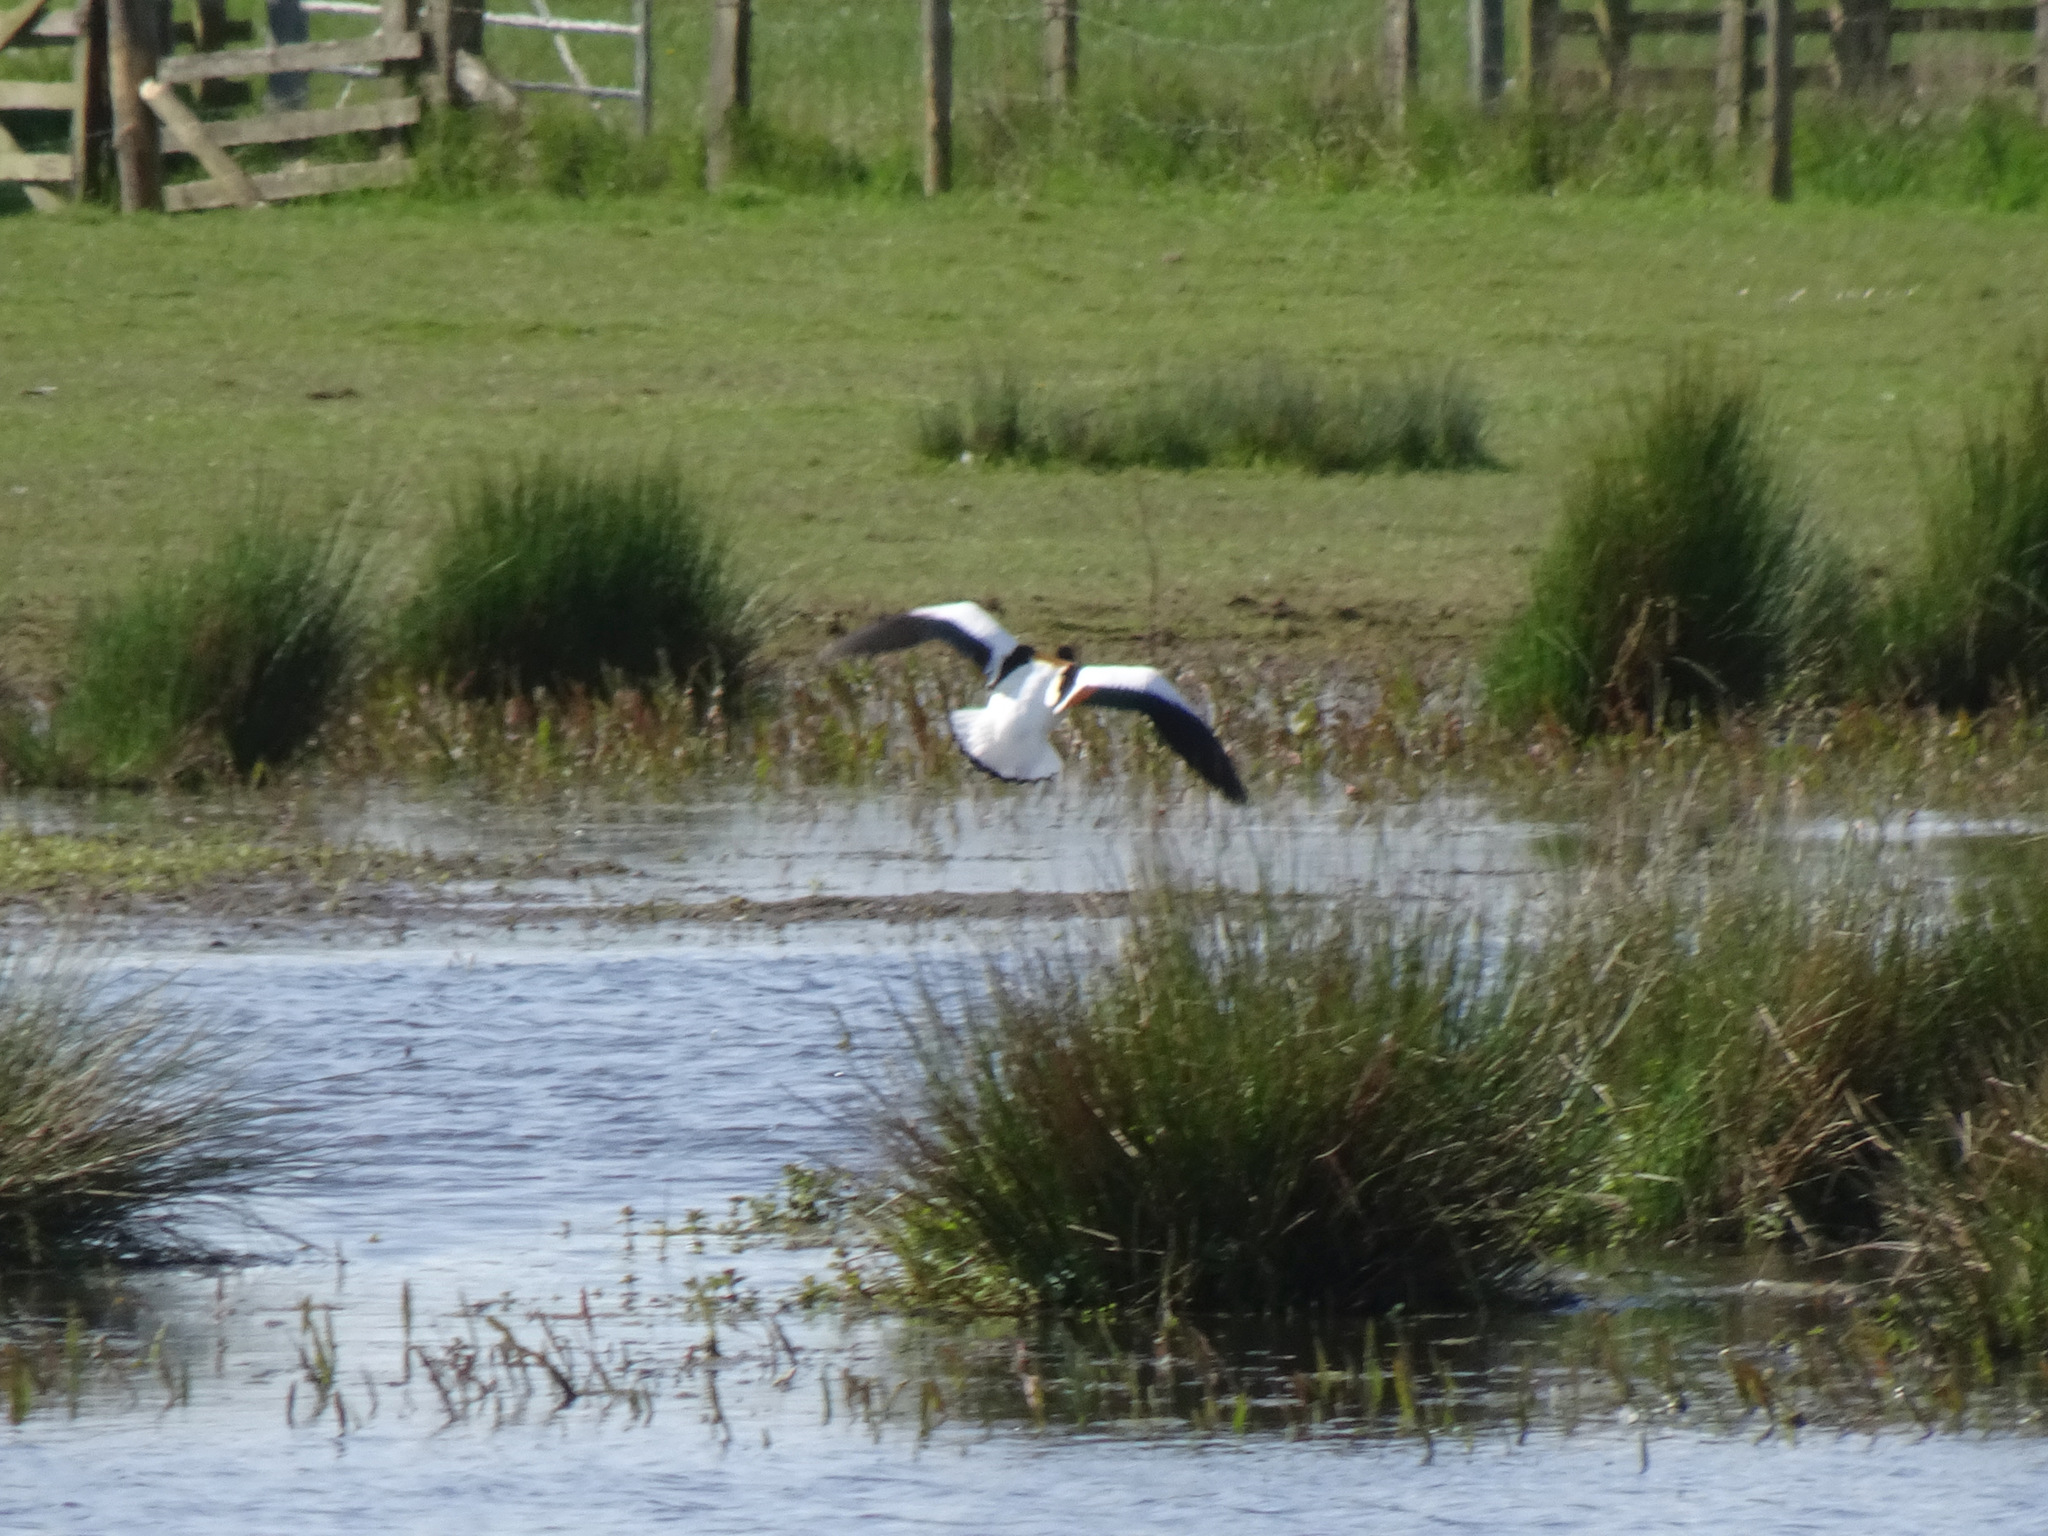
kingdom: Animalia
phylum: Chordata
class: Aves
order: Anseriformes
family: Anatidae
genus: Tadorna
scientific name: Tadorna tadorna
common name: Common shelduck
